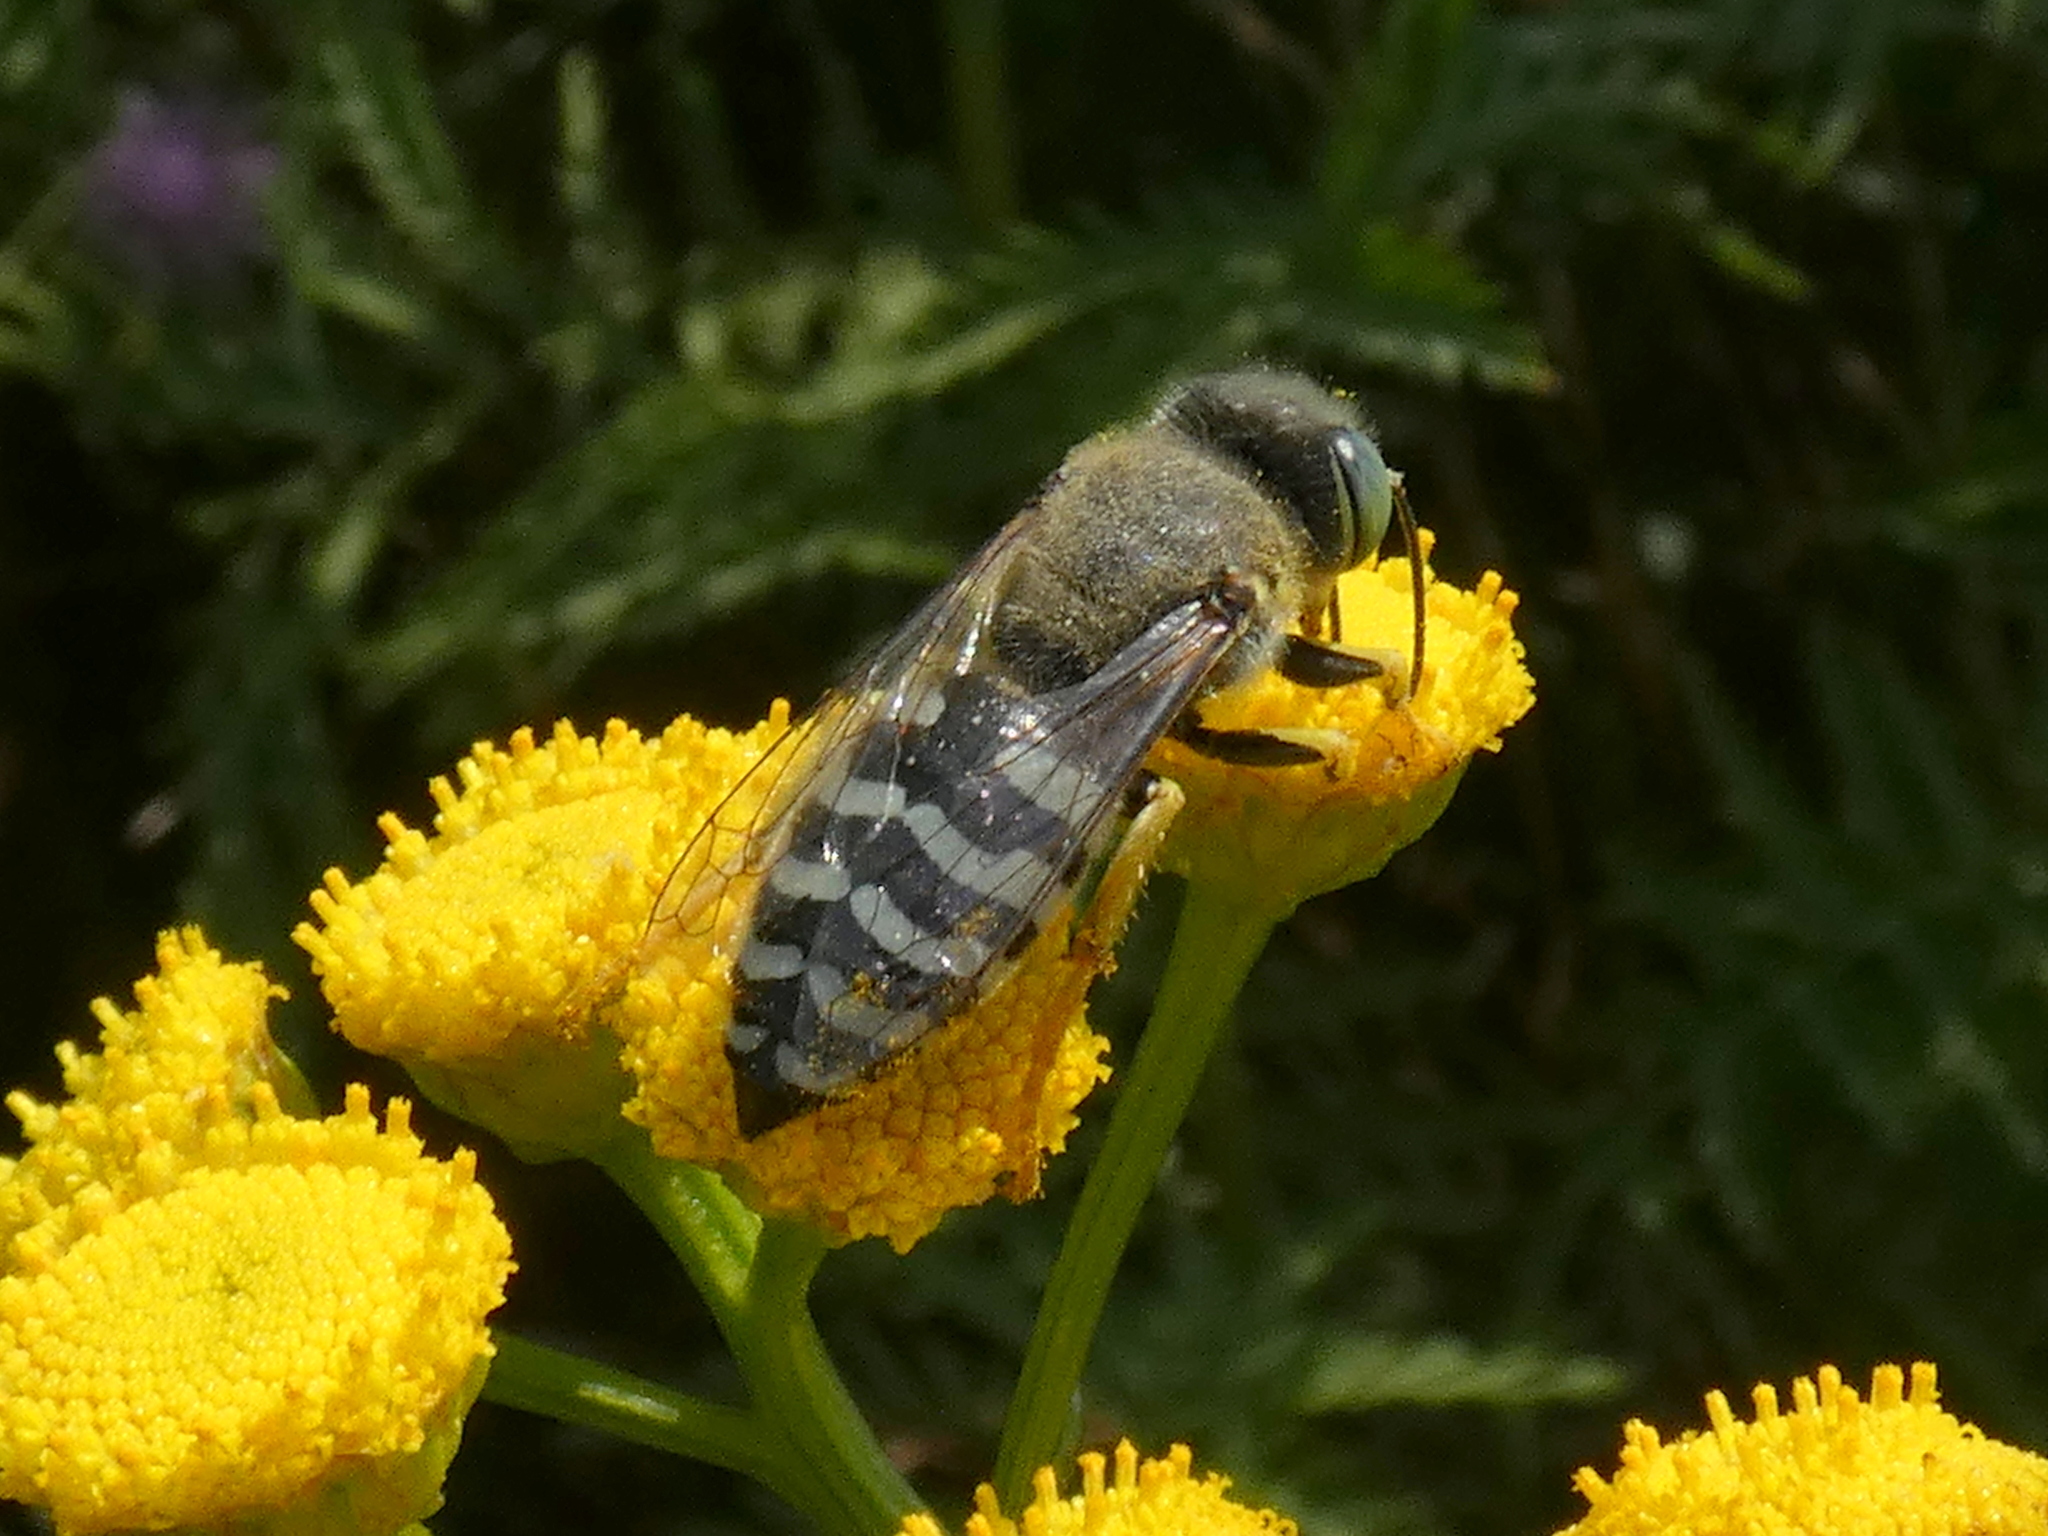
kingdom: Animalia
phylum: Arthropoda
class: Insecta
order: Hymenoptera
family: Crabronidae
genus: Bembix
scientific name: Bembix americana
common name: American sand wasp
